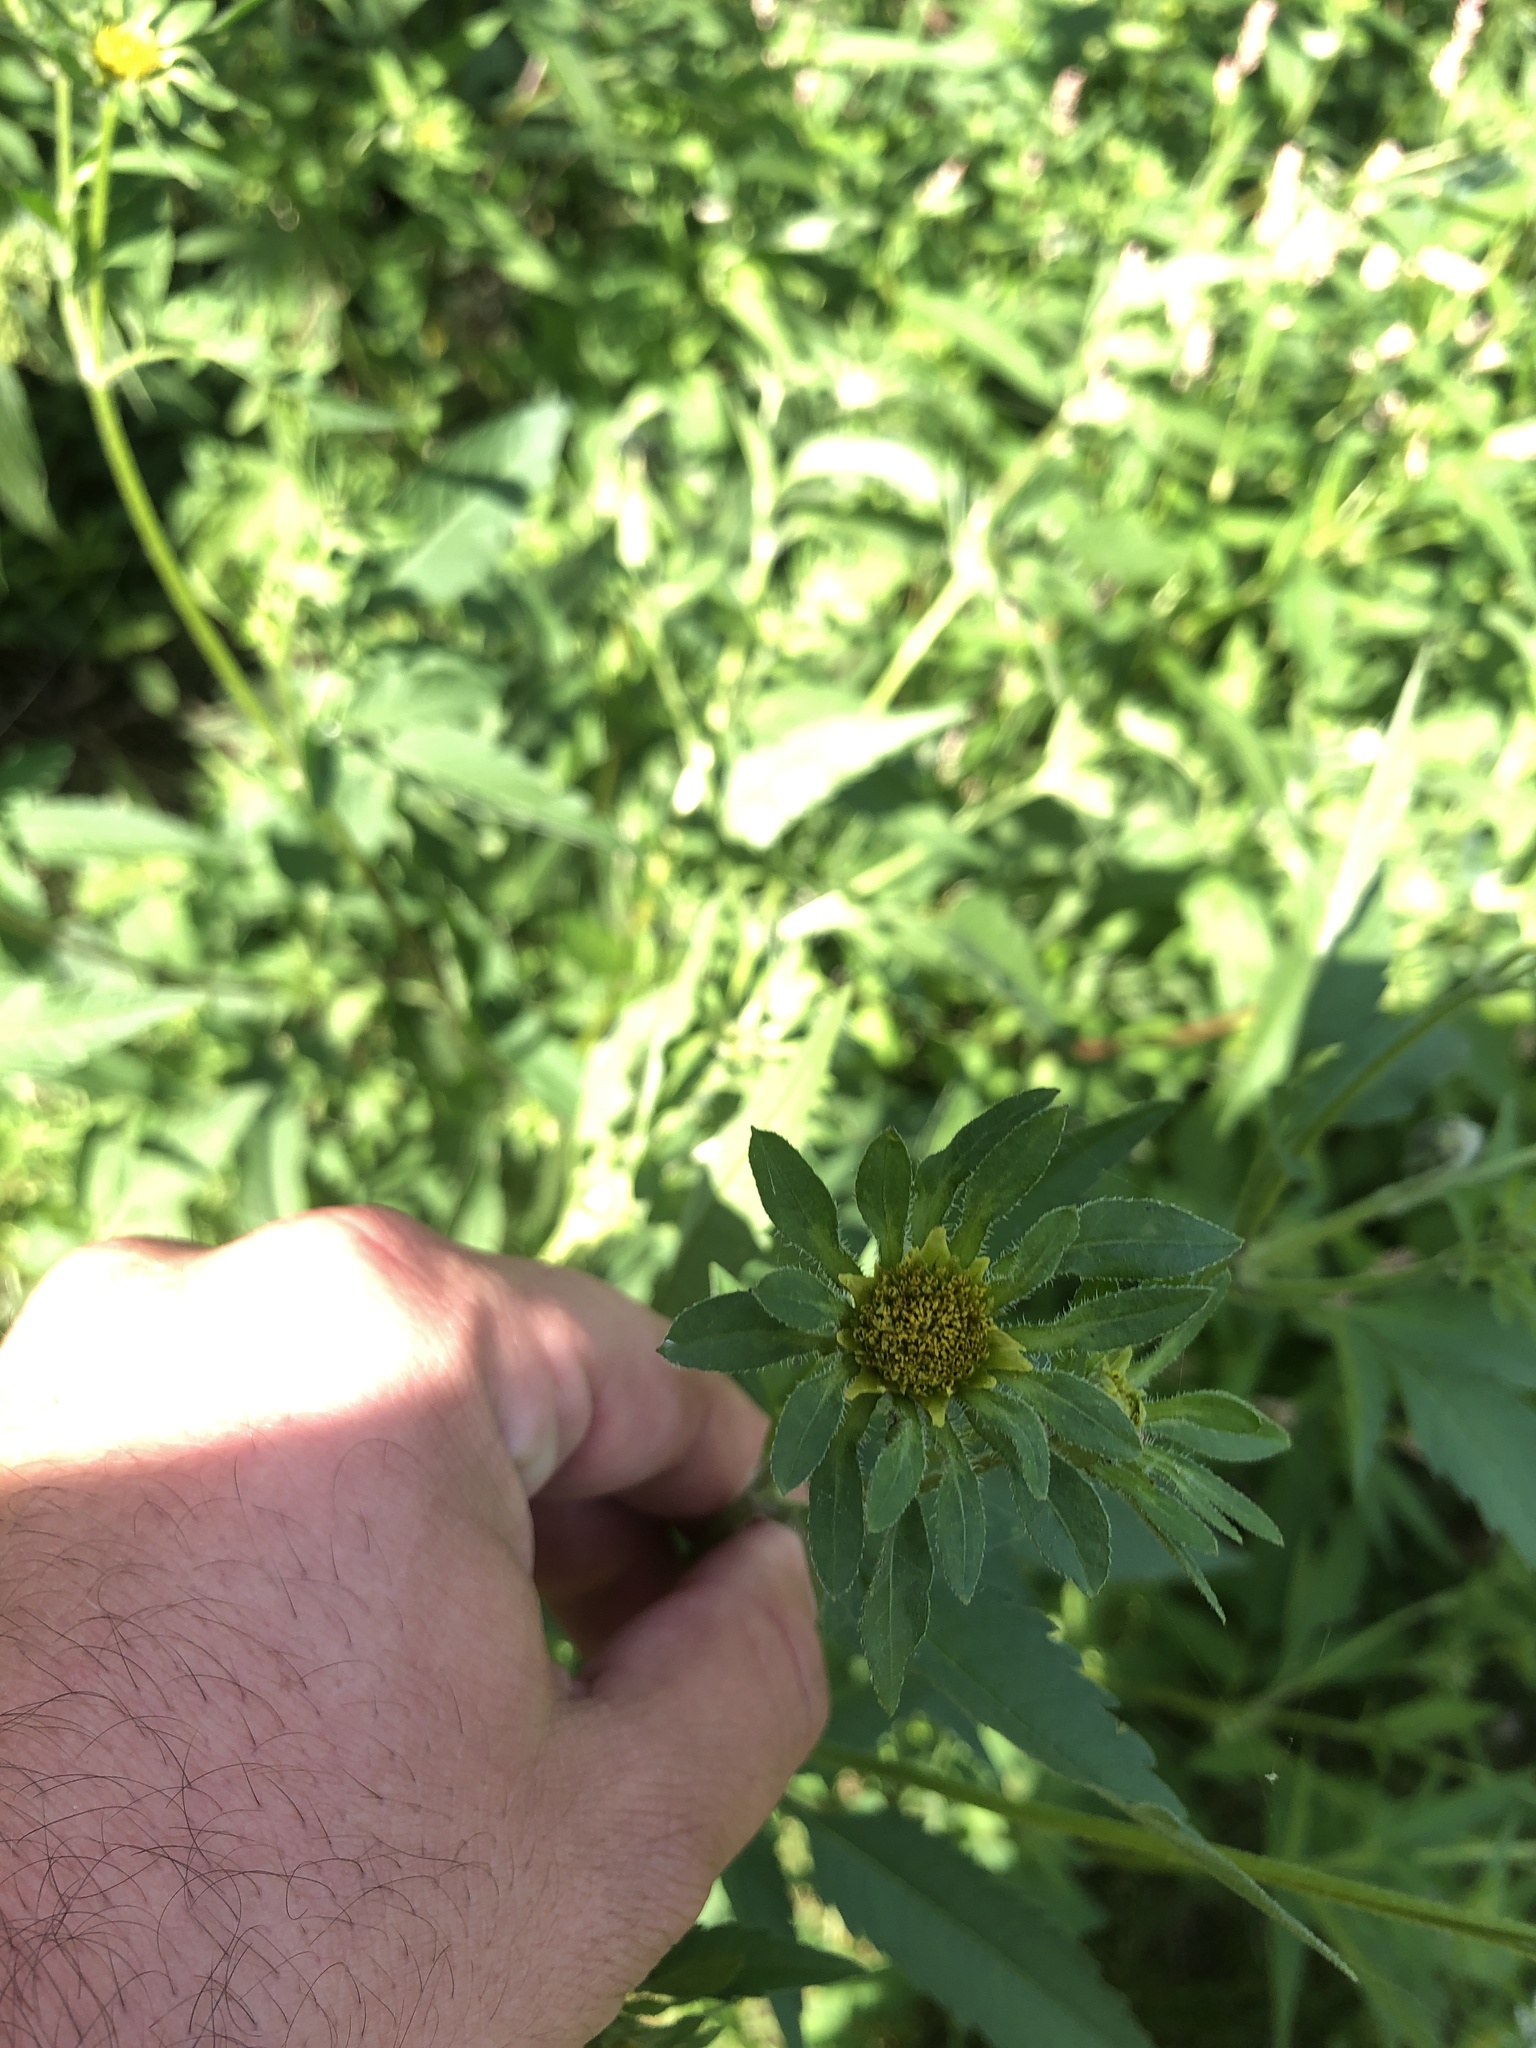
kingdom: Plantae
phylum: Tracheophyta
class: Magnoliopsida
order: Asterales
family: Asteraceae
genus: Bidens
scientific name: Bidens vulgata
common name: Tall beggarticks
